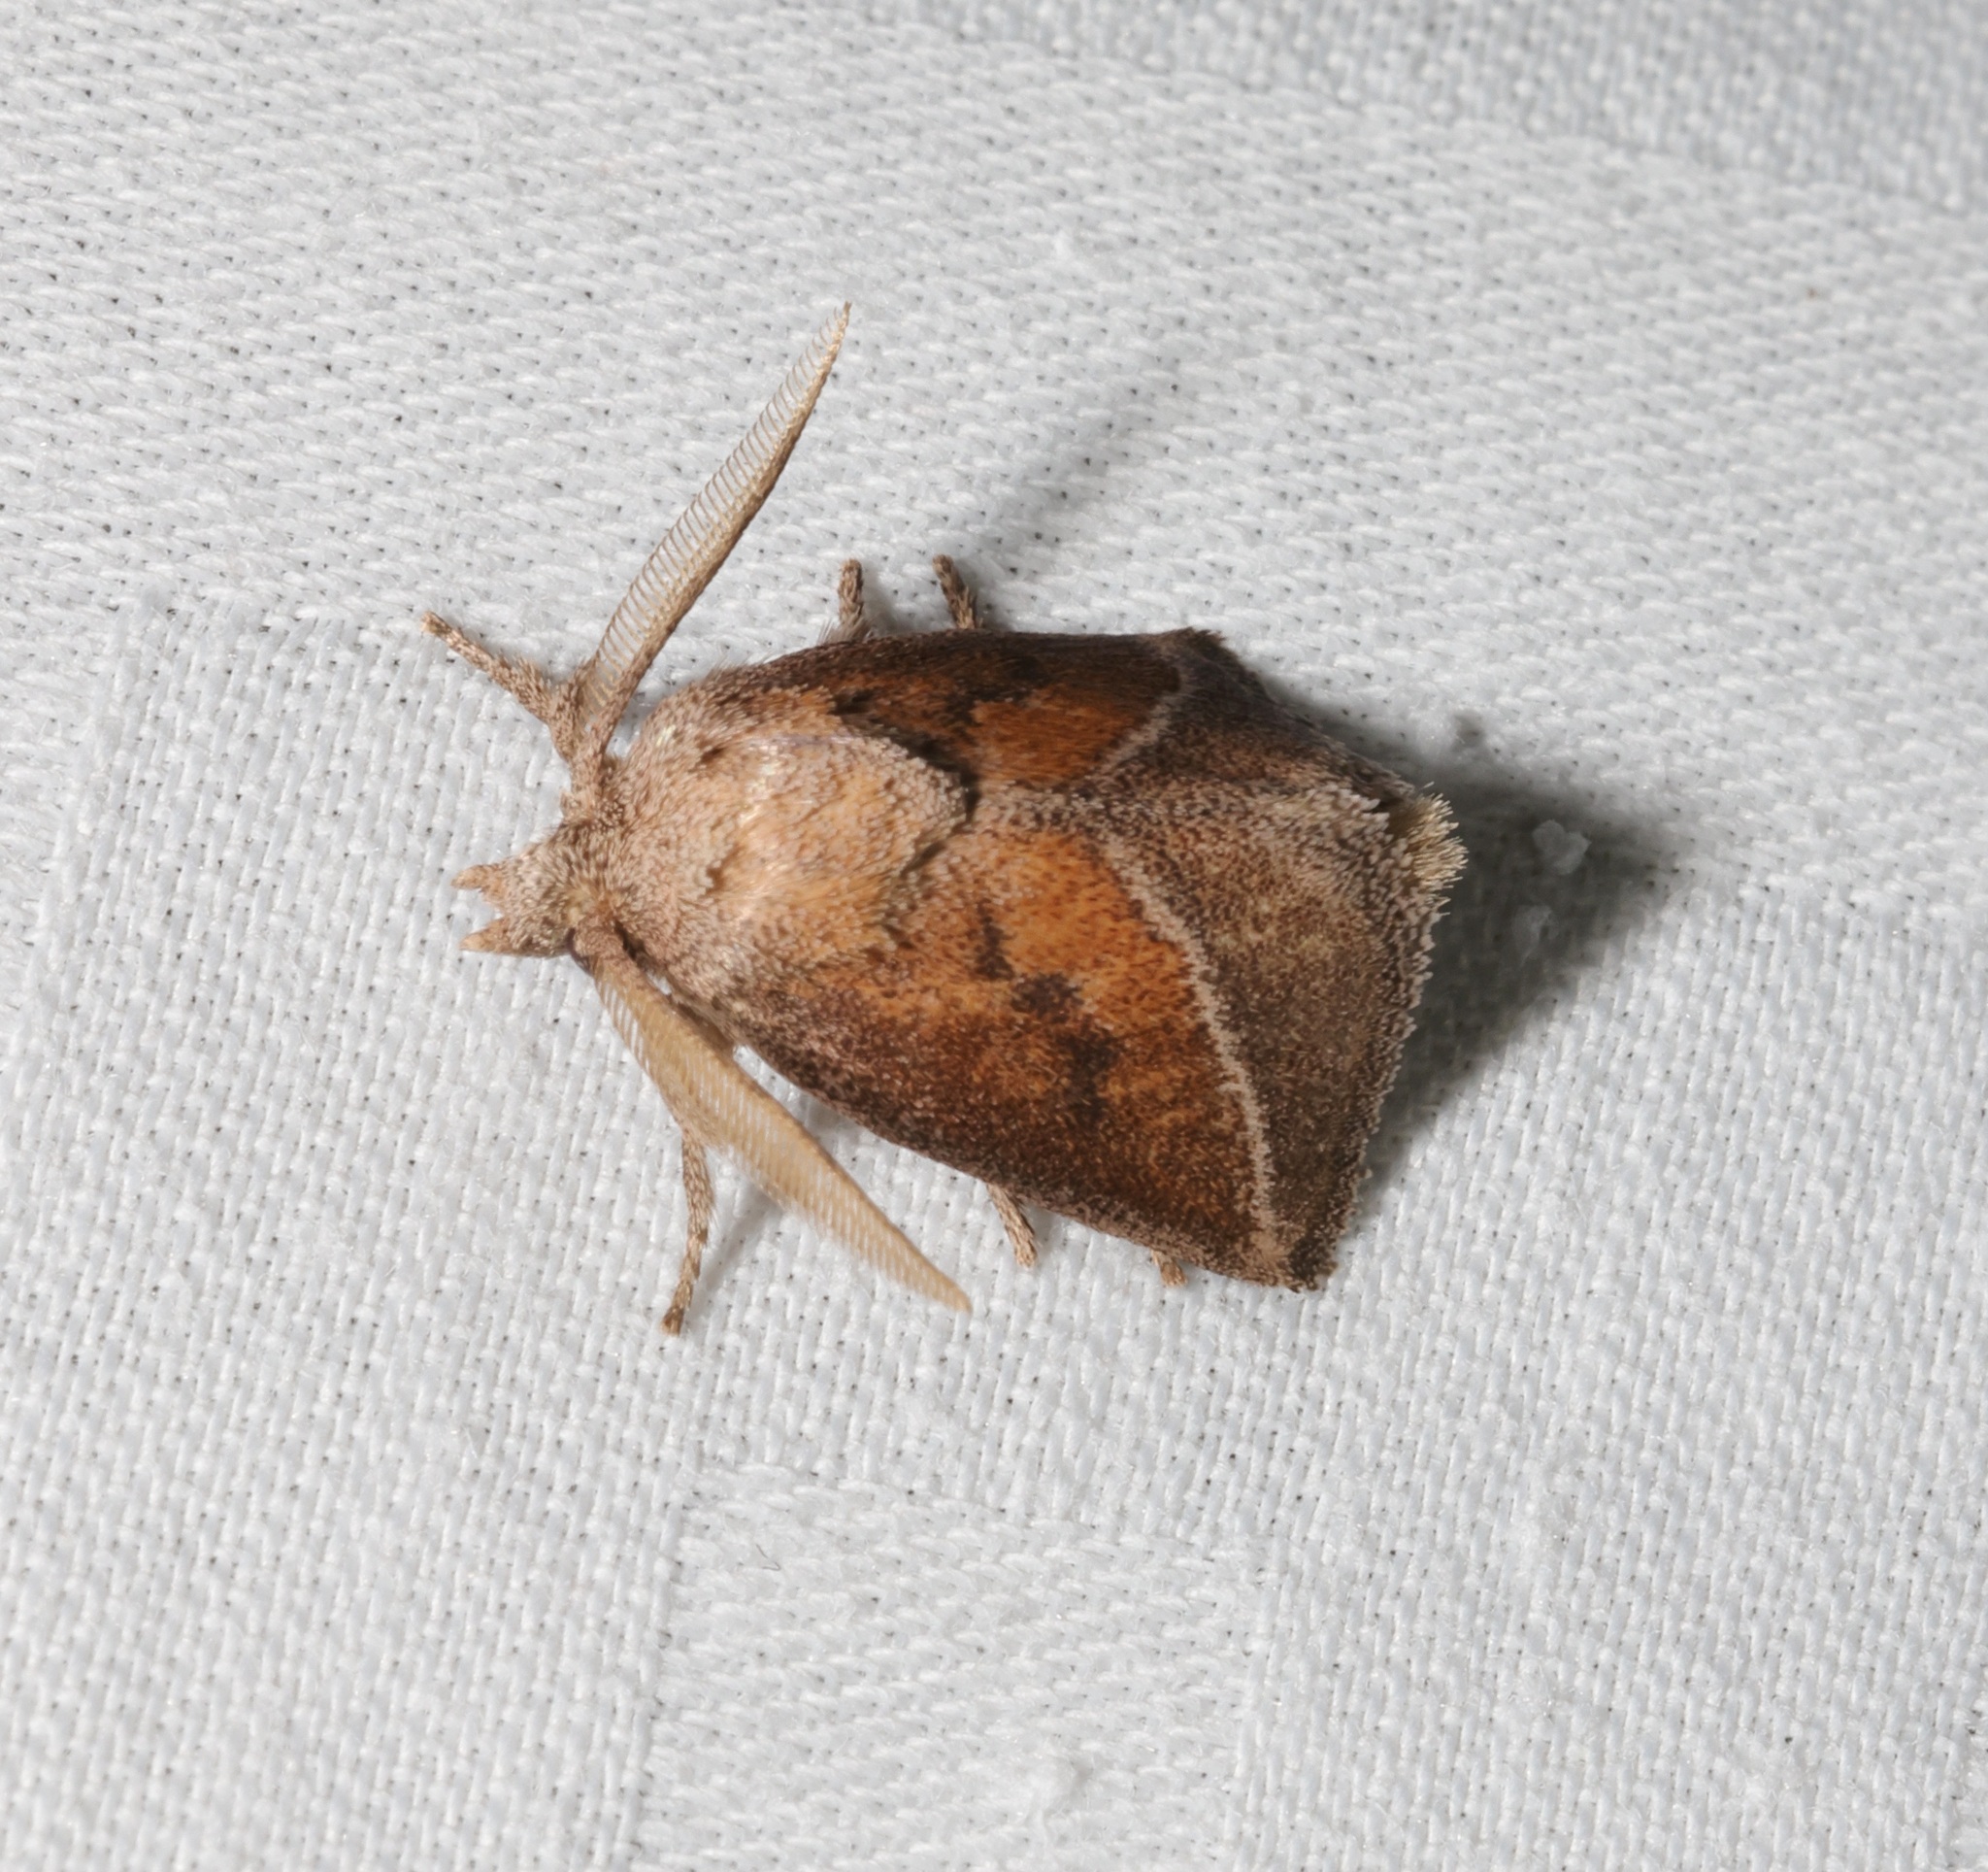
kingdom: Animalia
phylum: Arthropoda
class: Insecta
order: Lepidoptera
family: Limacodidae
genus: Oxyplax
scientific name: Oxyplax pallivitta
